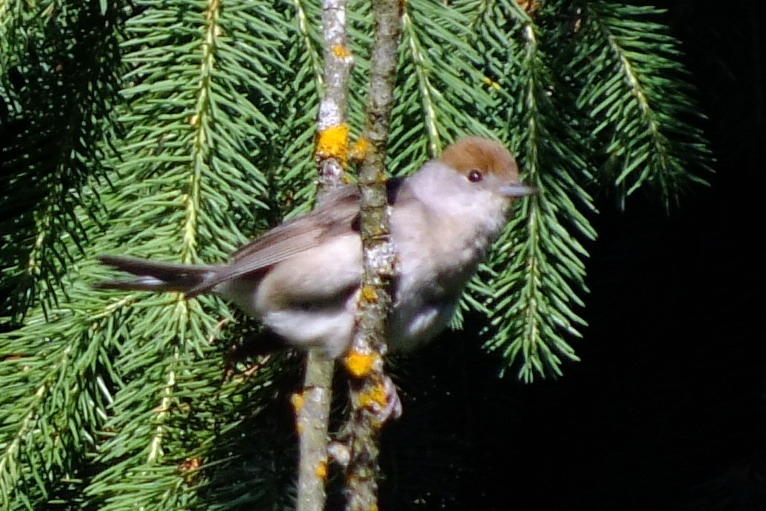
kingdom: Animalia
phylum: Chordata
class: Aves
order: Passeriformes
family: Sylviidae
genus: Sylvia
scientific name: Sylvia atricapilla
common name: Eurasian blackcap
